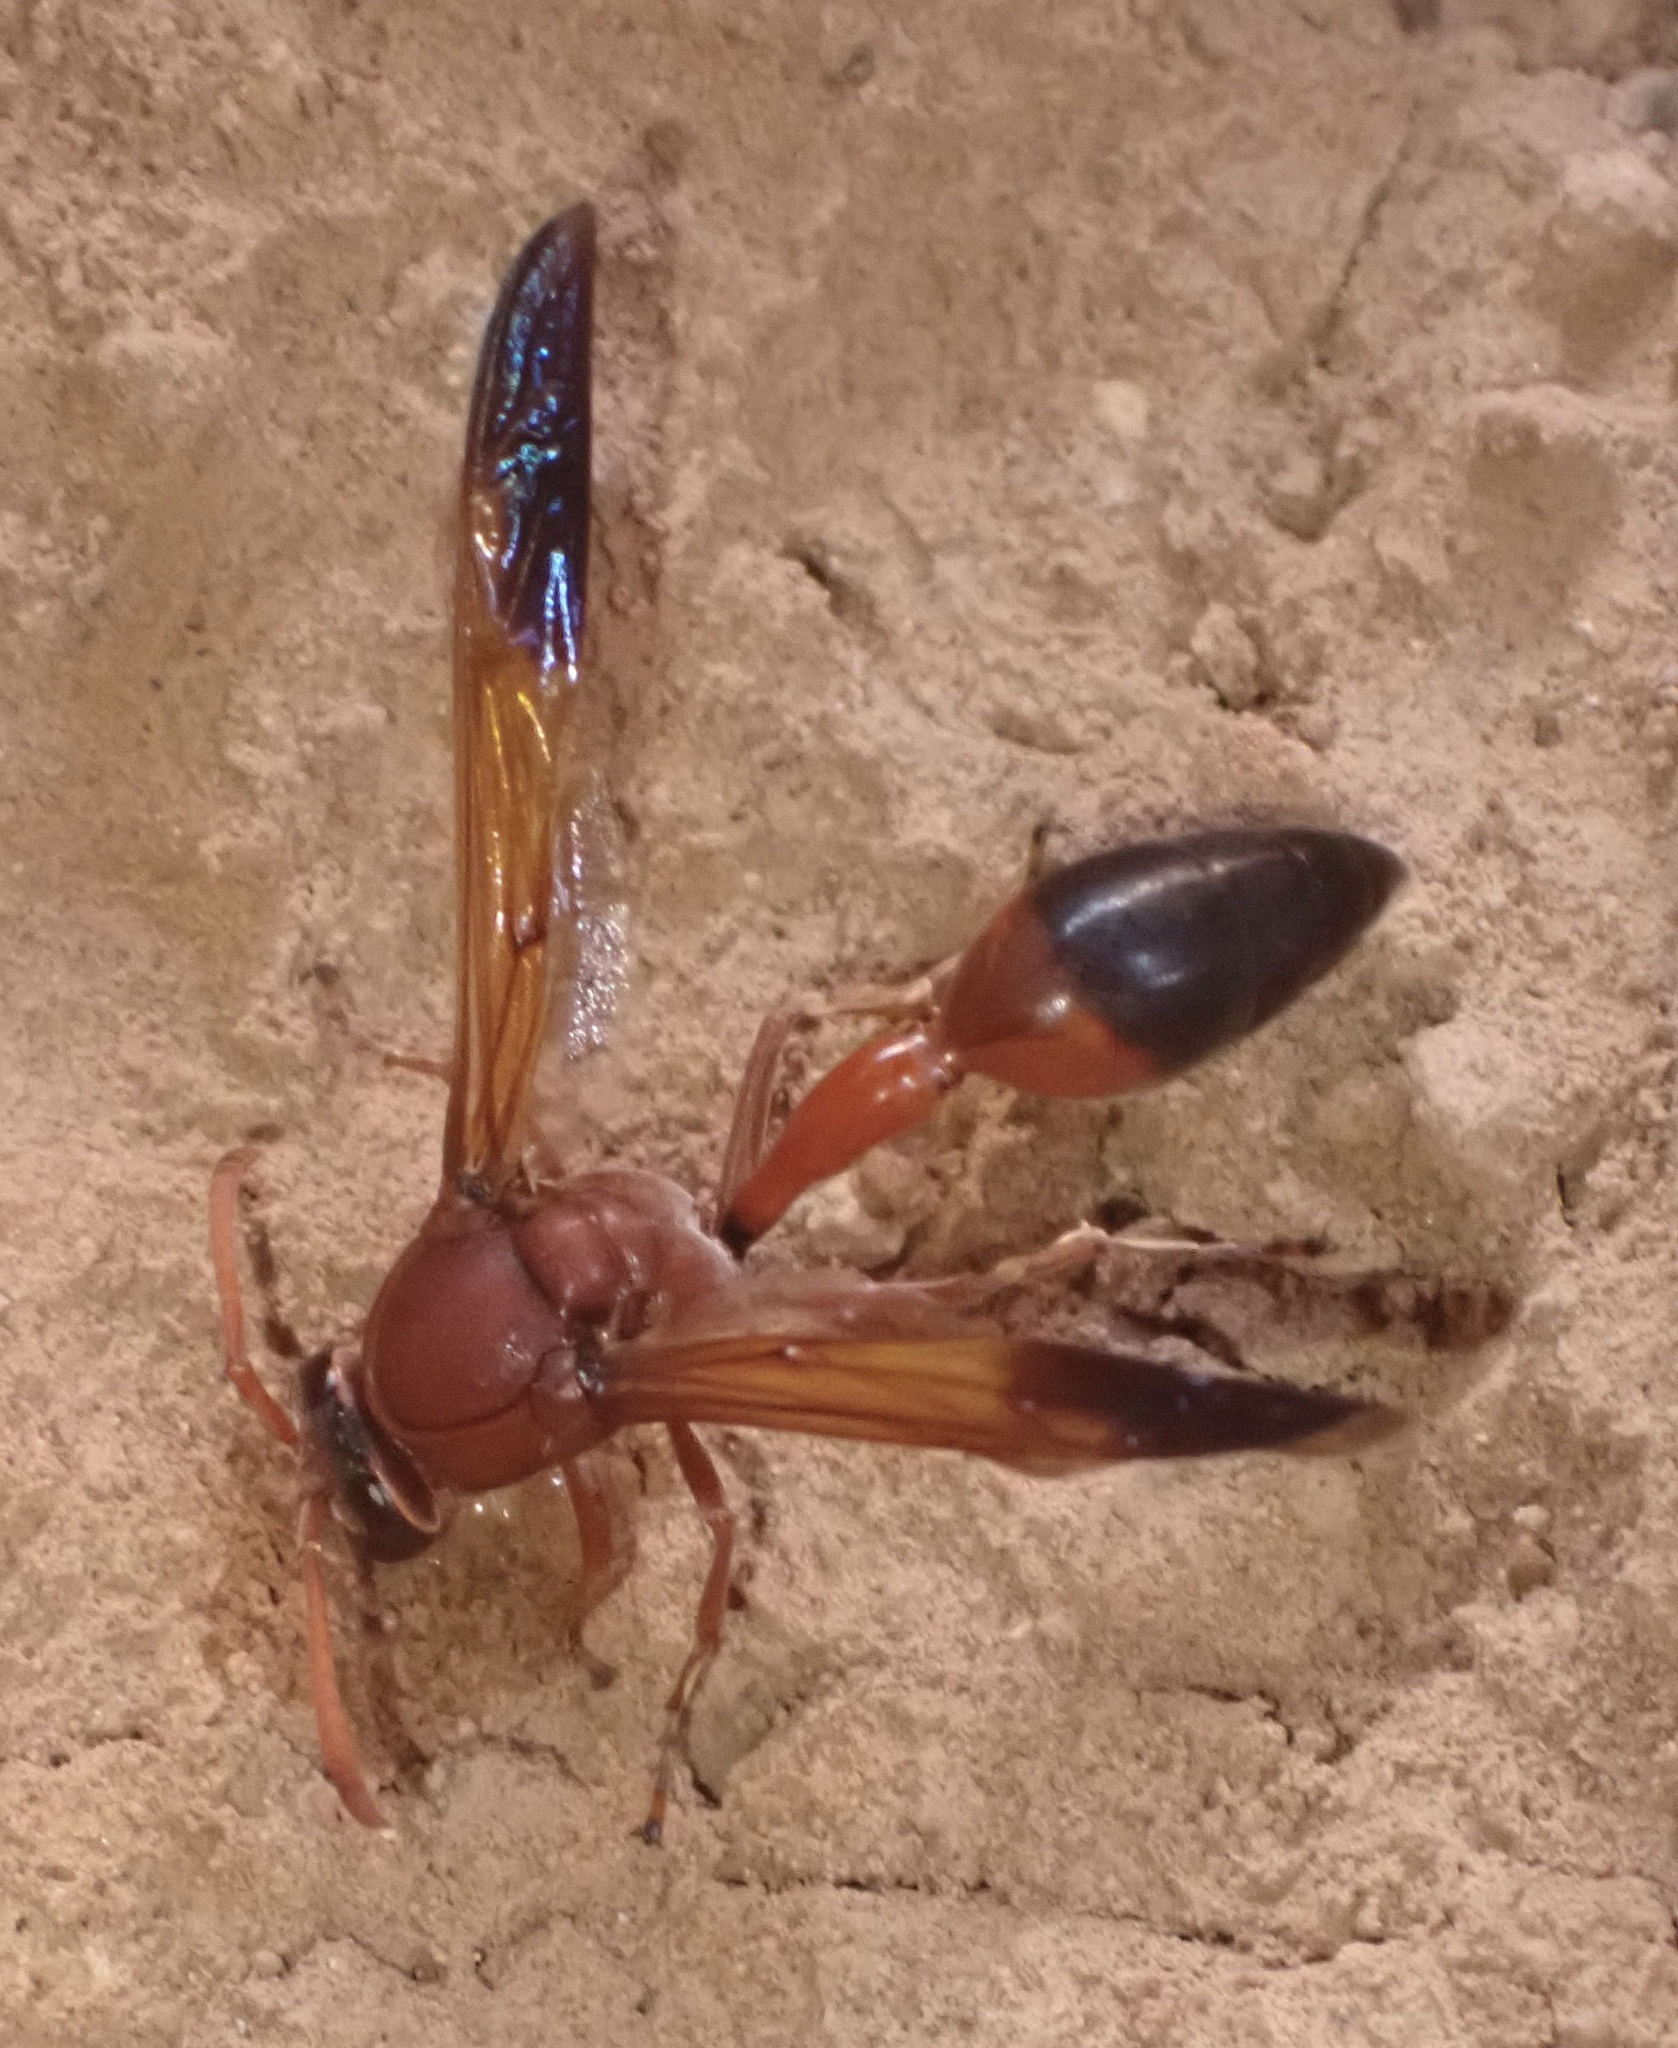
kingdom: Animalia
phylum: Arthropoda
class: Insecta
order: Hymenoptera
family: Eumenidae
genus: Delta
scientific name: Delta dimidiatipenne
